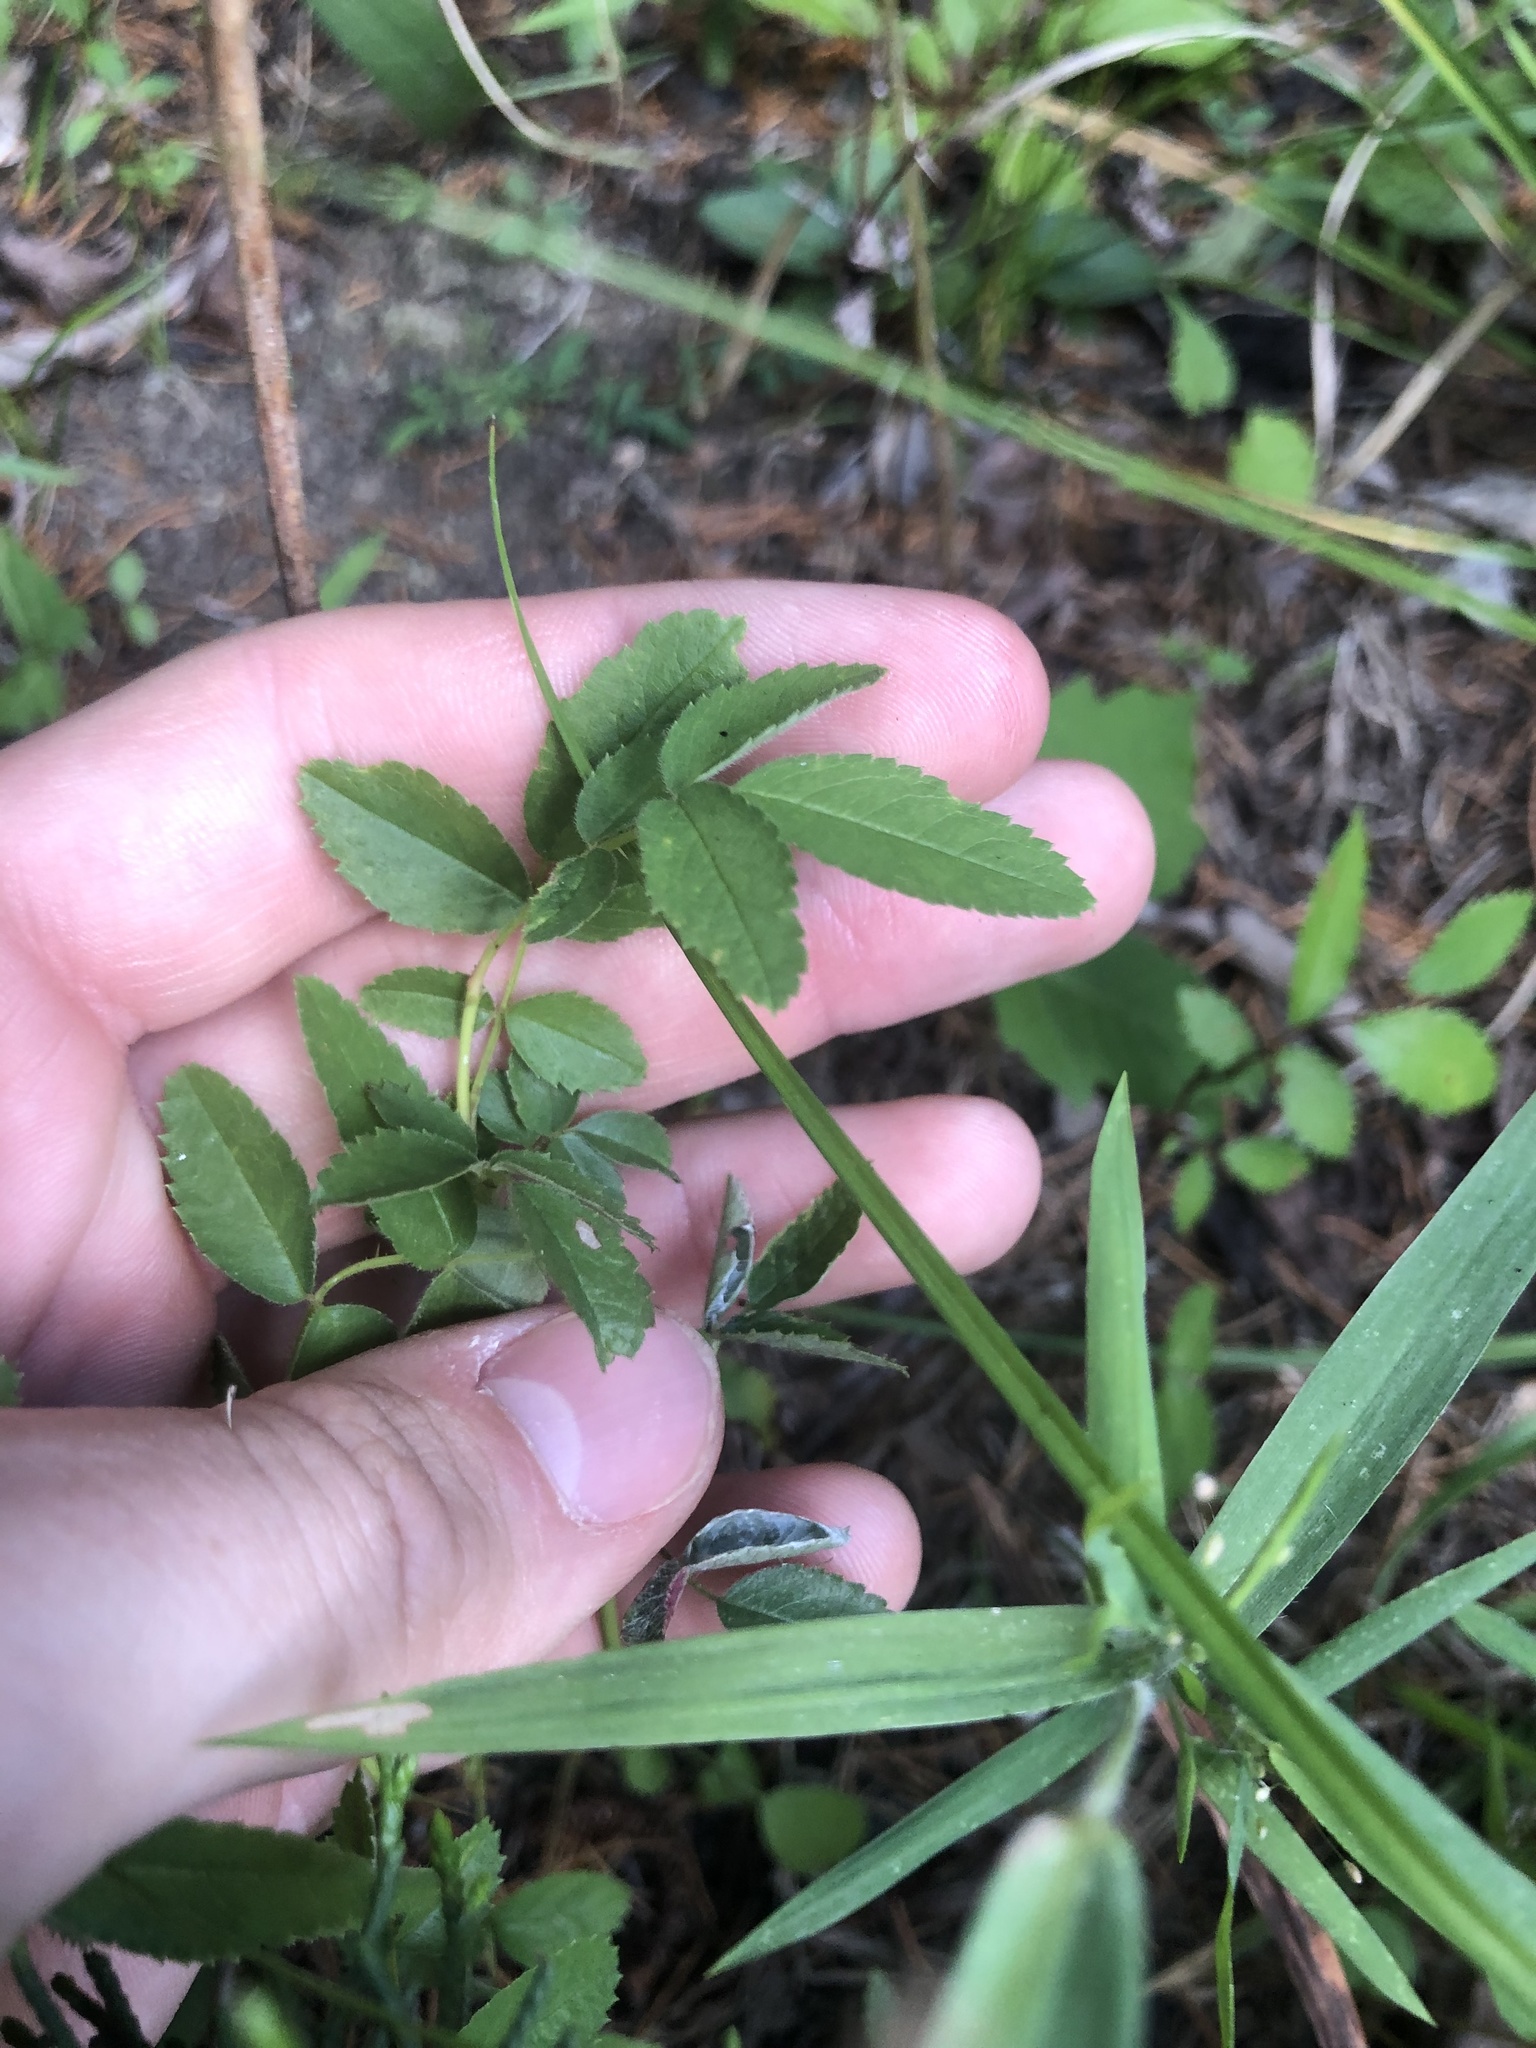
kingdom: Plantae
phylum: Tracheophyta
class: Magnoliopsida
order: Rosales
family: Rosaceae
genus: Rosa
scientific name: Rosa carolina
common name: Pasture rose
